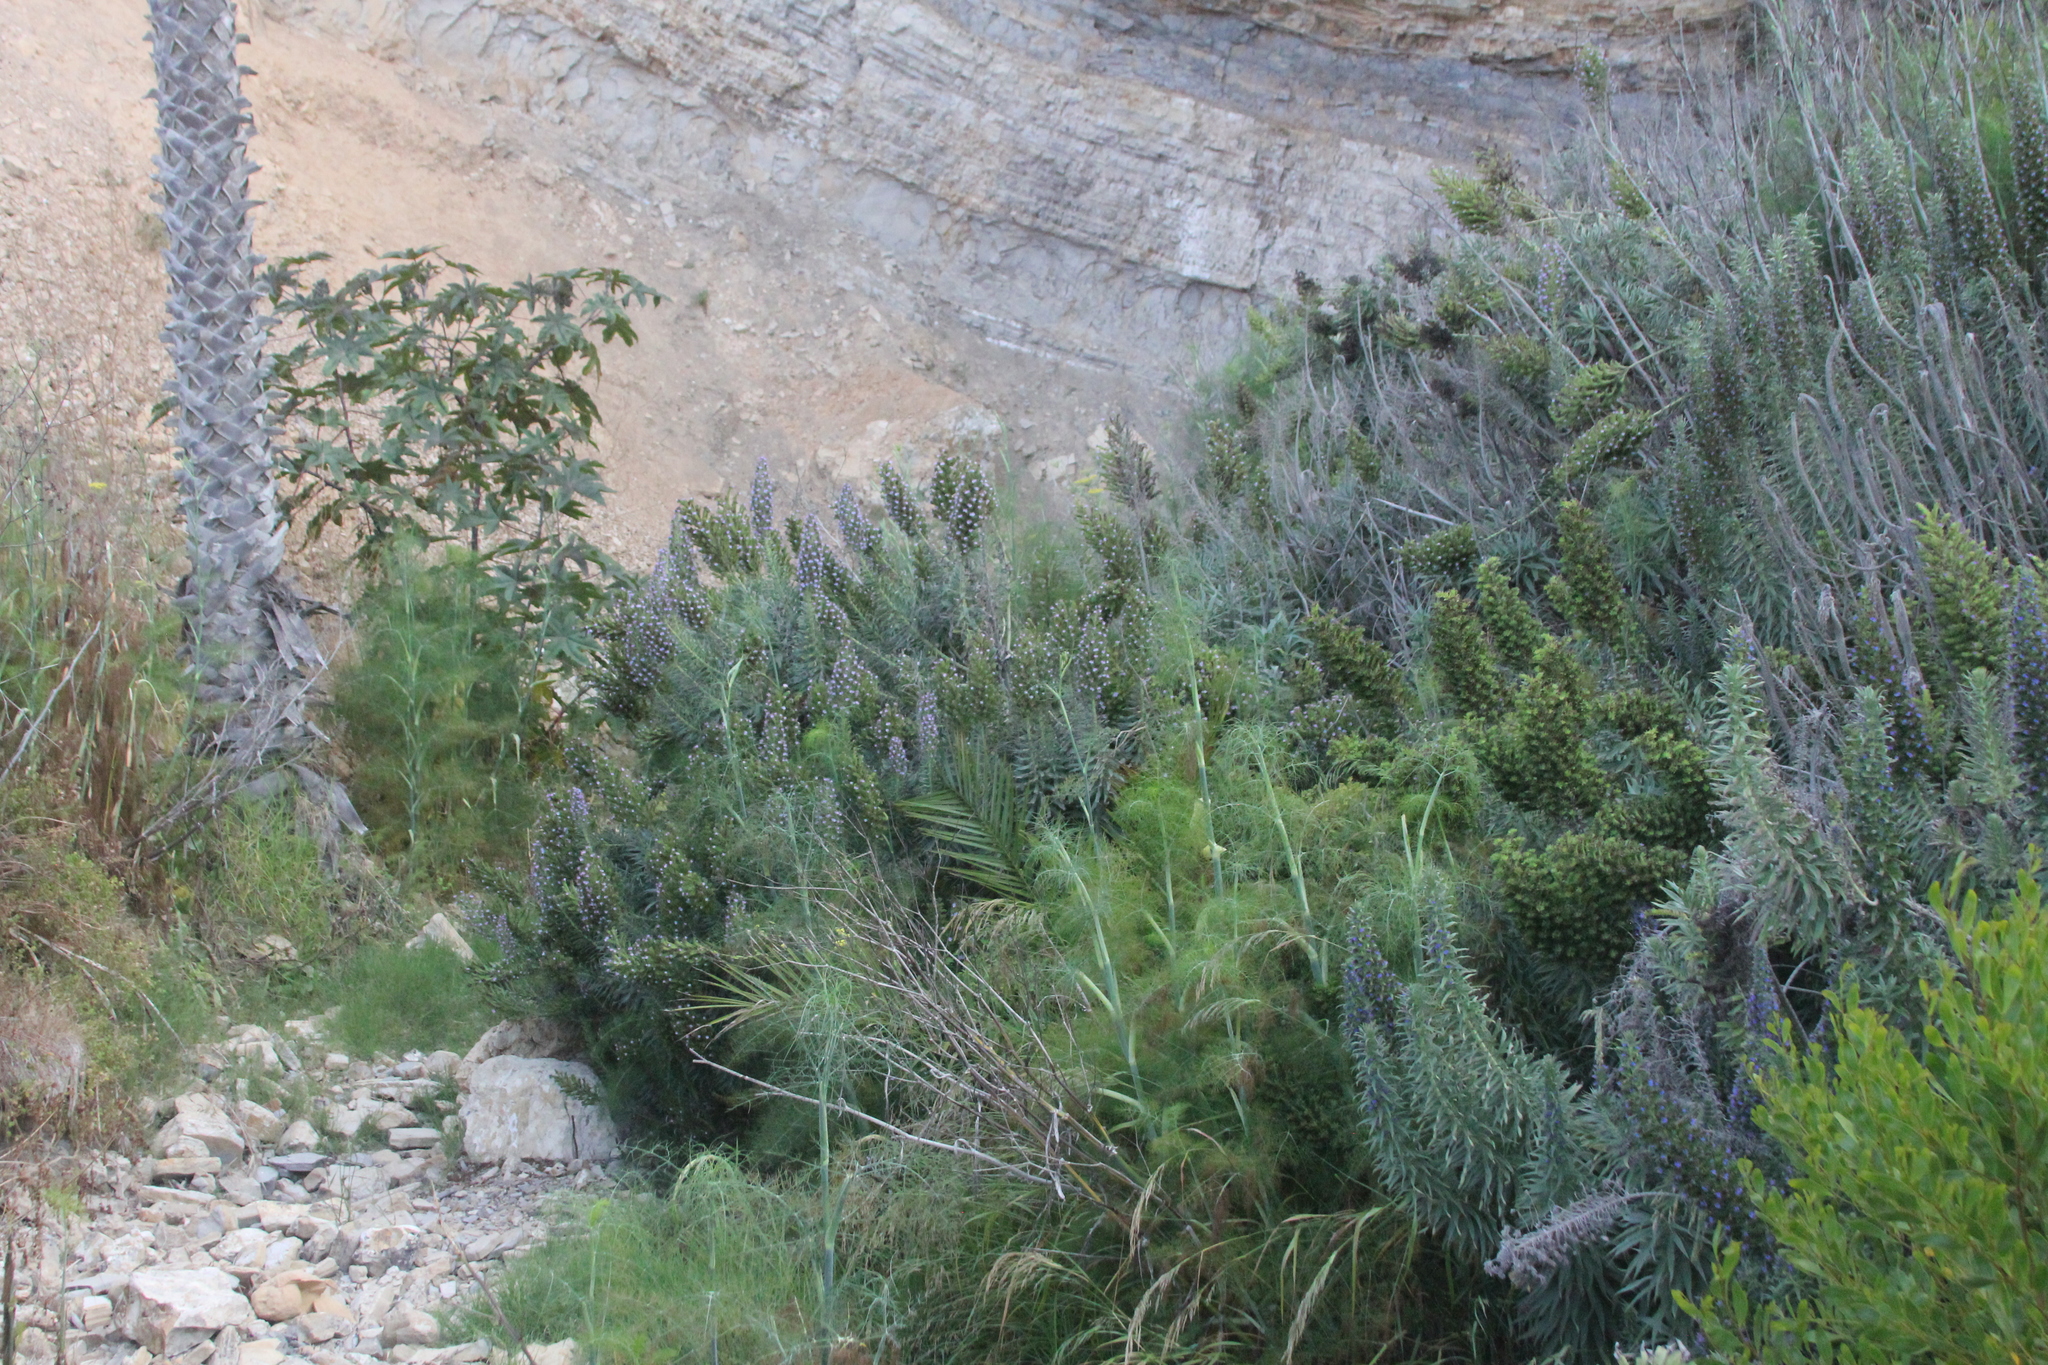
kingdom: Plantae
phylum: Tracheophyta
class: Magnoliopsida
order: Malpighiales
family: Euphorbiaceae
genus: Ricinus
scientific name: Ricinus communis
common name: Castor-oil-plant
